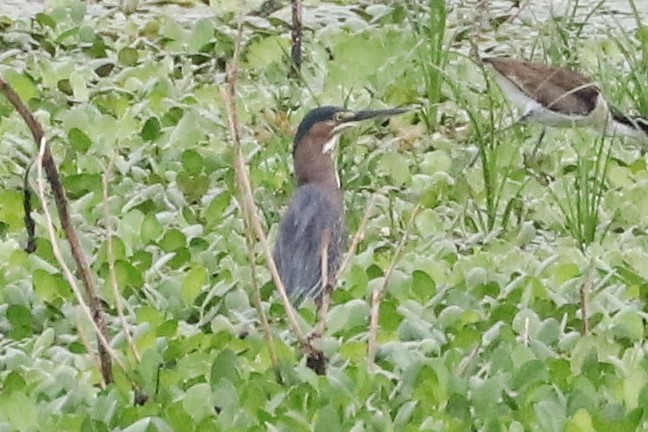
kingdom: Animalia
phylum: Chordata
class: Aves
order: Pelecaniformes
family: Ardeidae
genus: Butorides
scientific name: Butorides striata
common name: Striated heron
